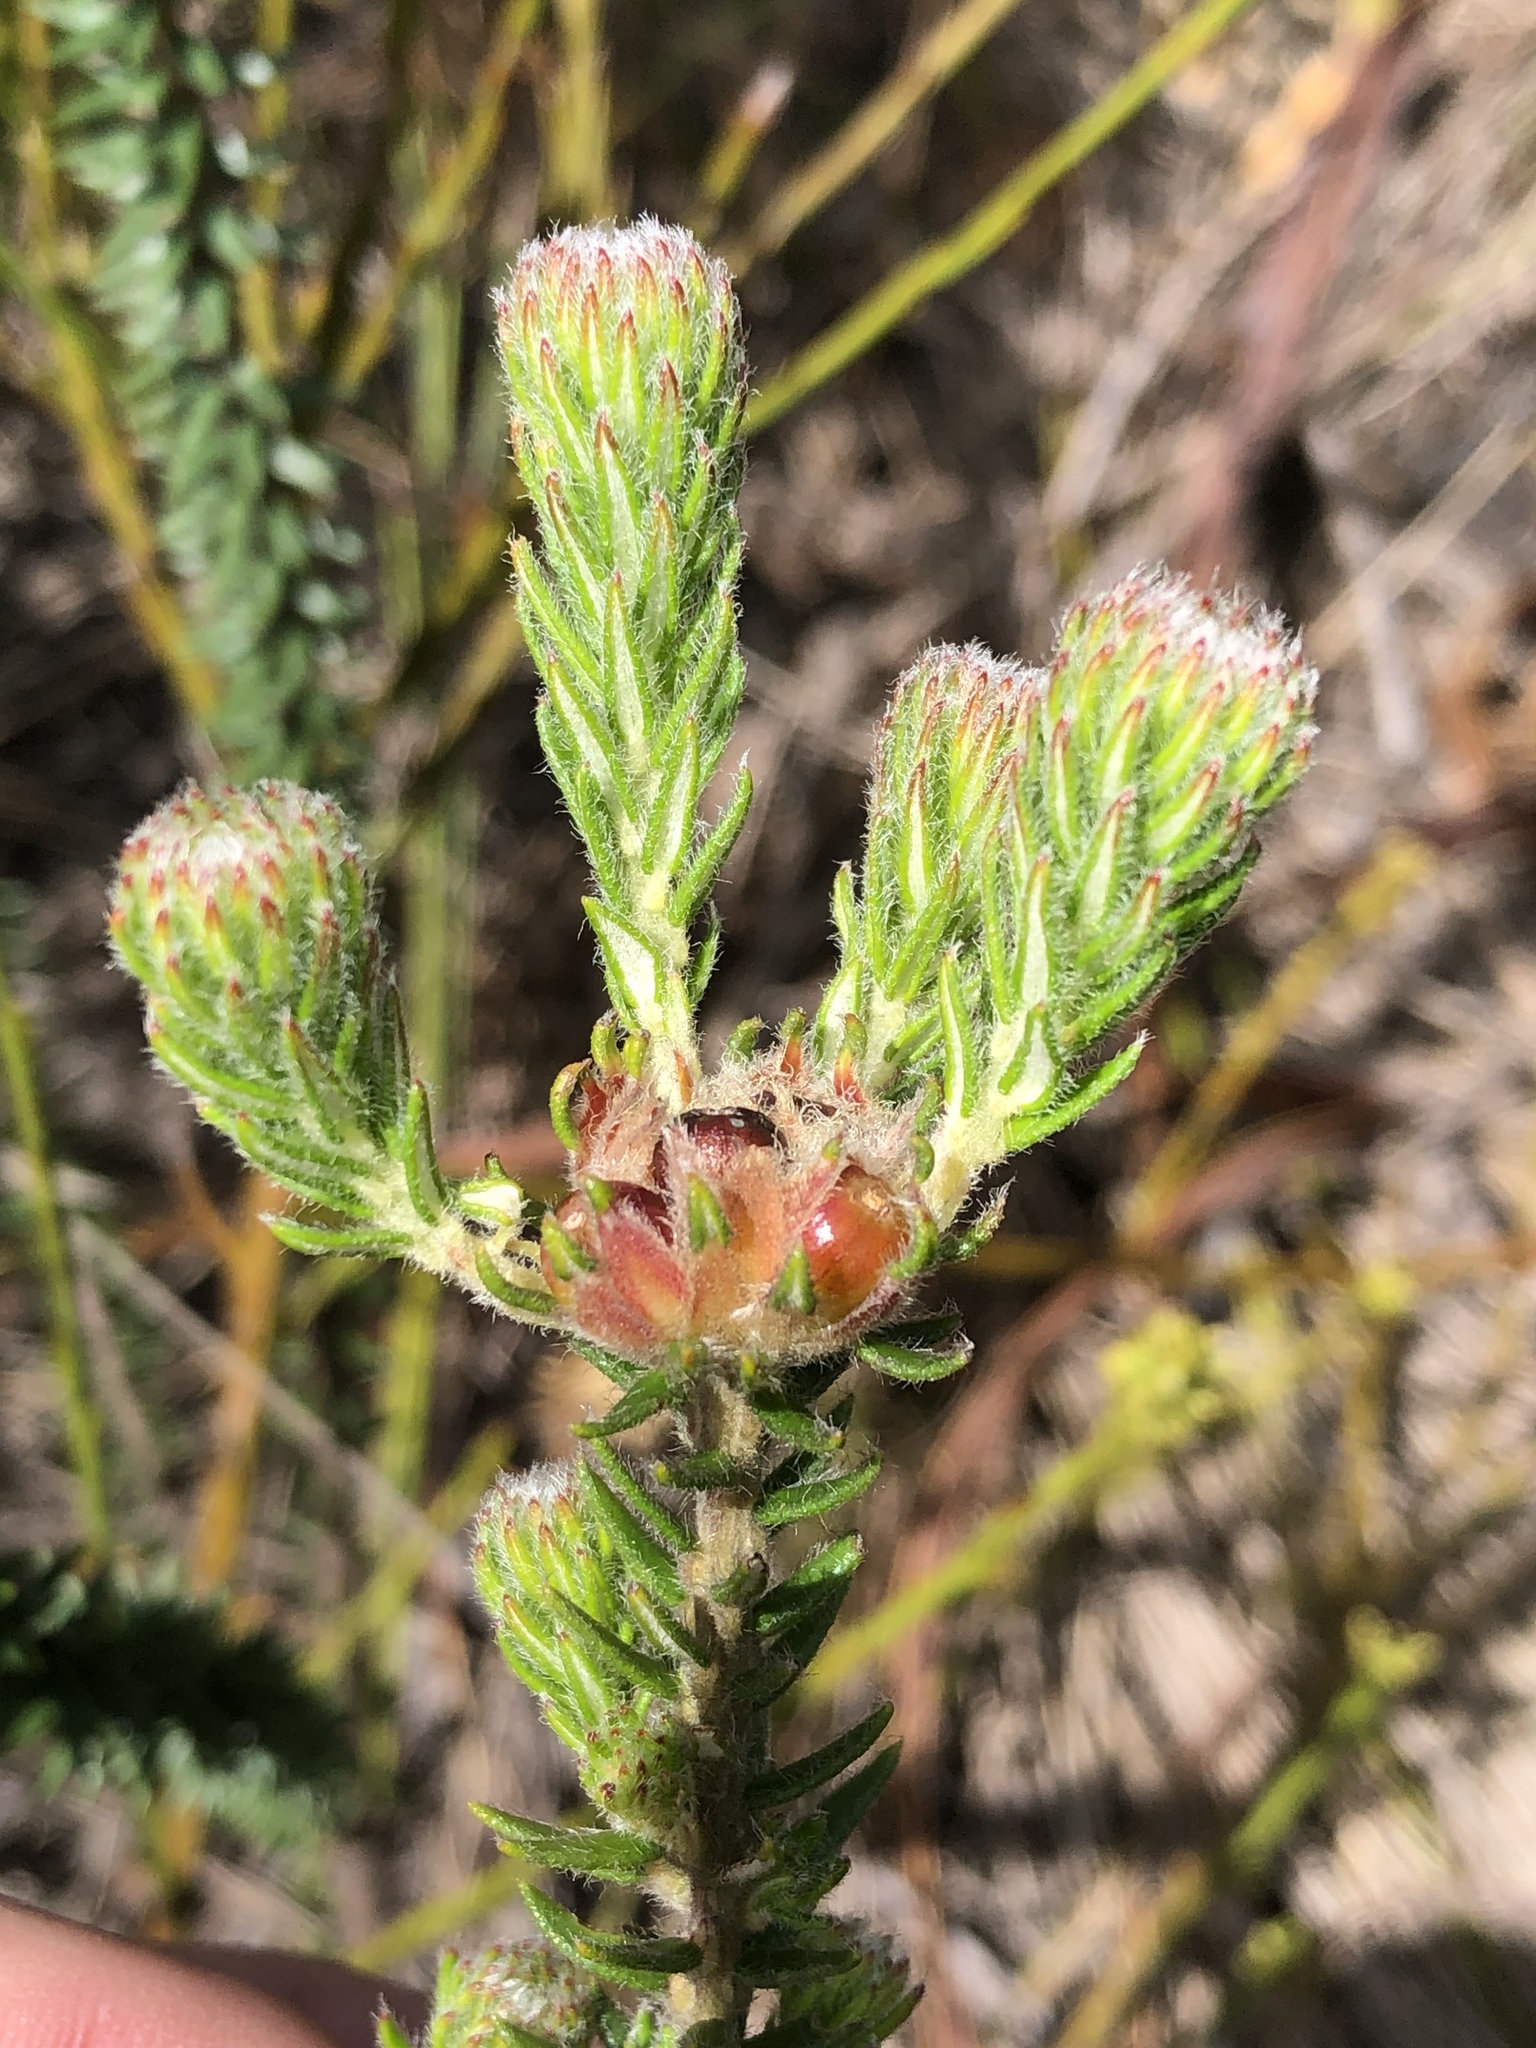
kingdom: Plantae
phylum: Tracheophyta
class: Magnoliopsida
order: Rosales
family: Rhamnaceae
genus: Phylica
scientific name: Phylica tortuosa
